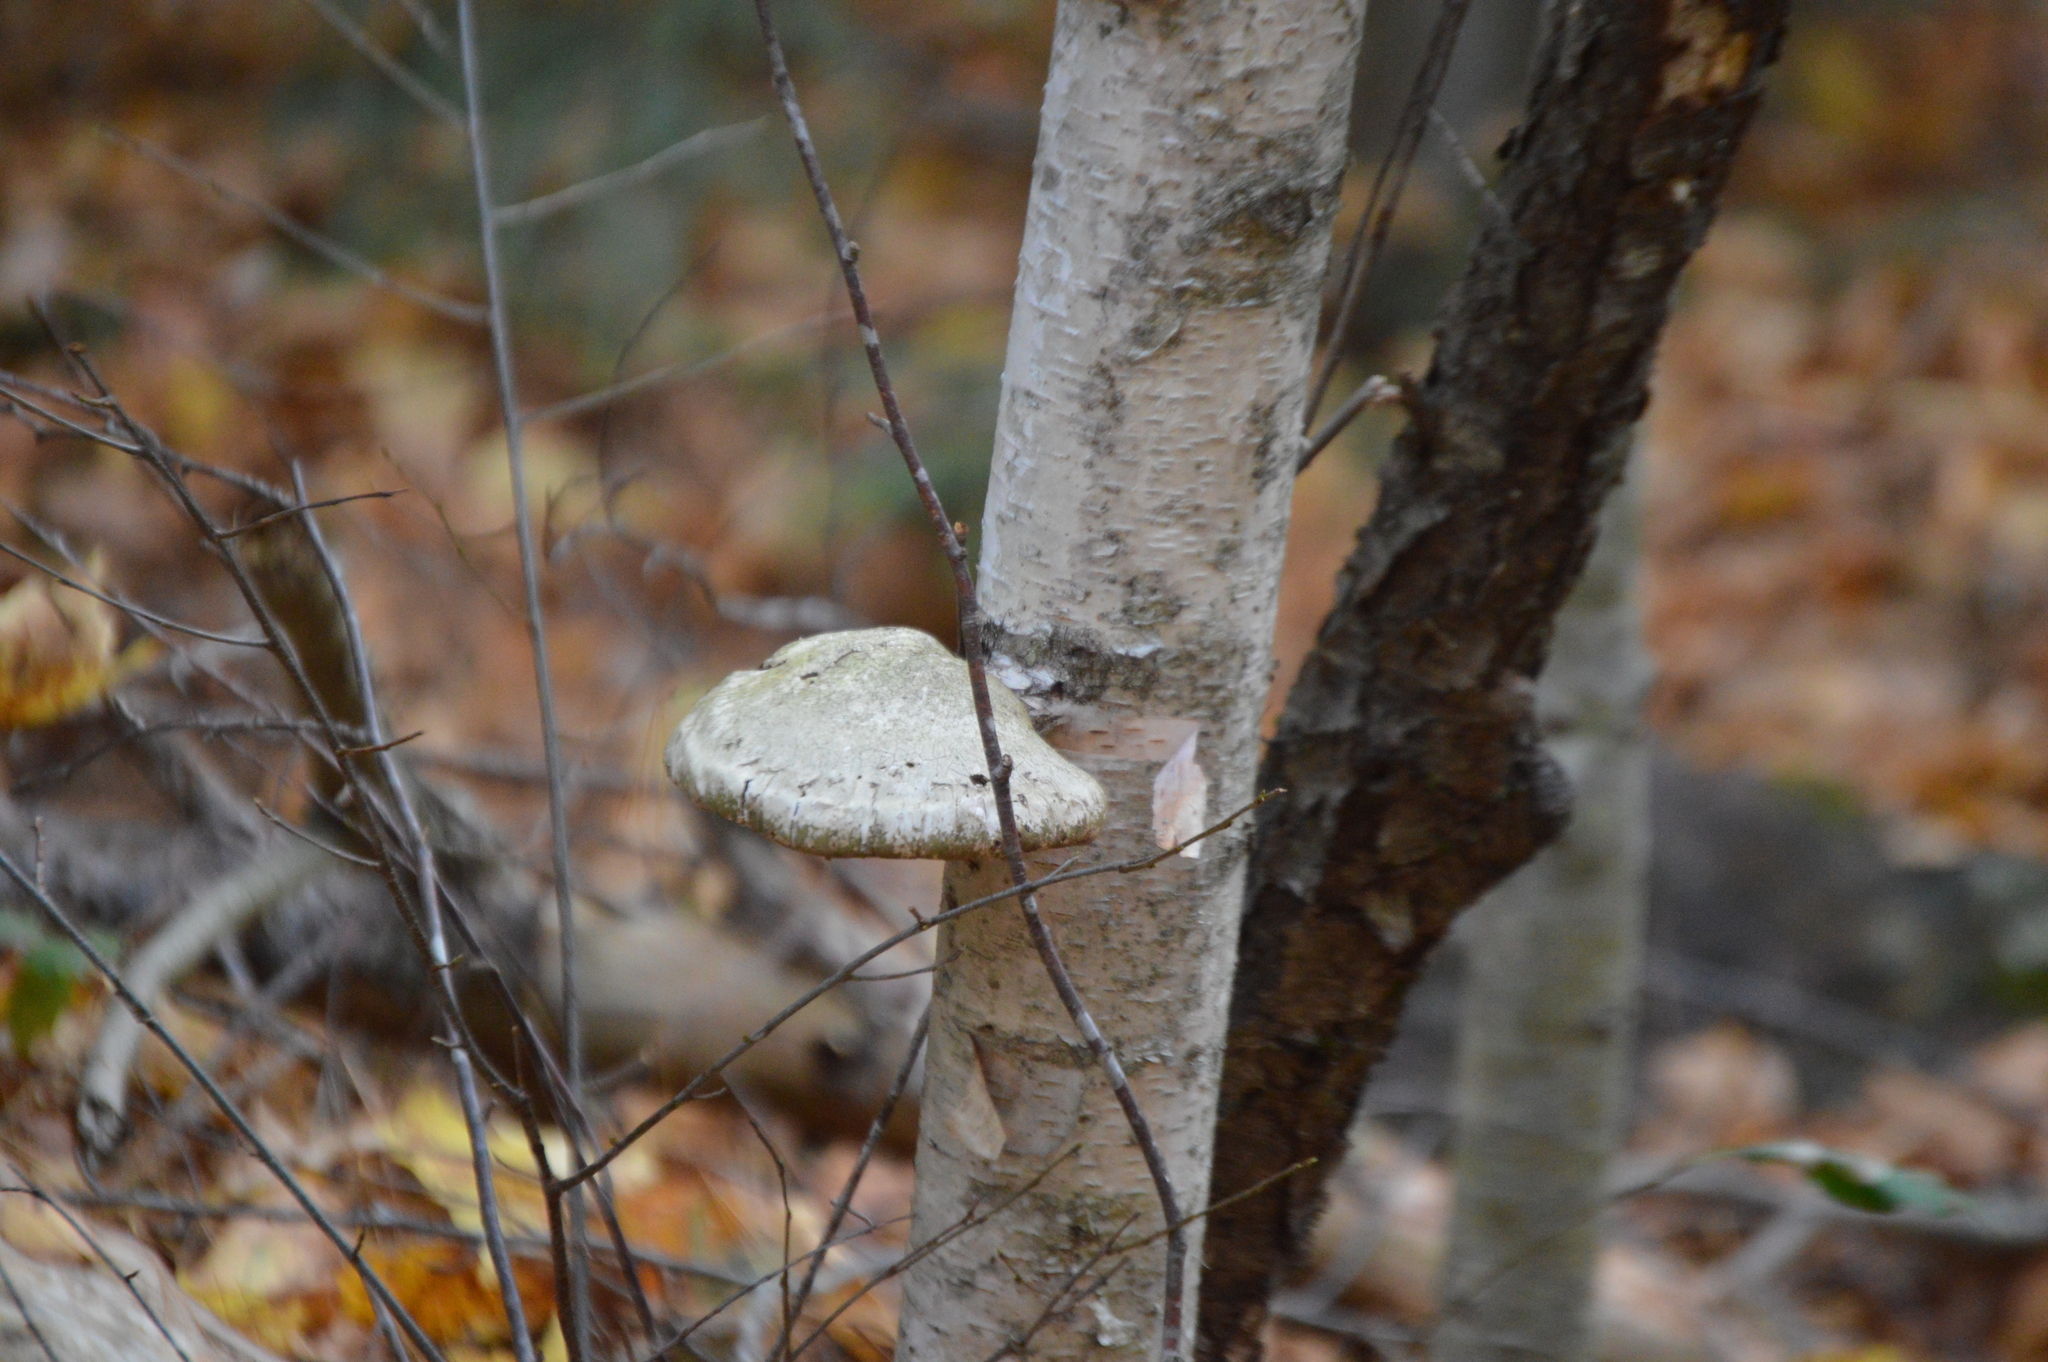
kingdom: Fungi
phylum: Basidiomycota
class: Agaricomycetes
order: Polyporales
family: Fomitopsidaceae
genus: Fomitopsis
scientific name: Fomitopsis betulina
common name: Birch polypore
